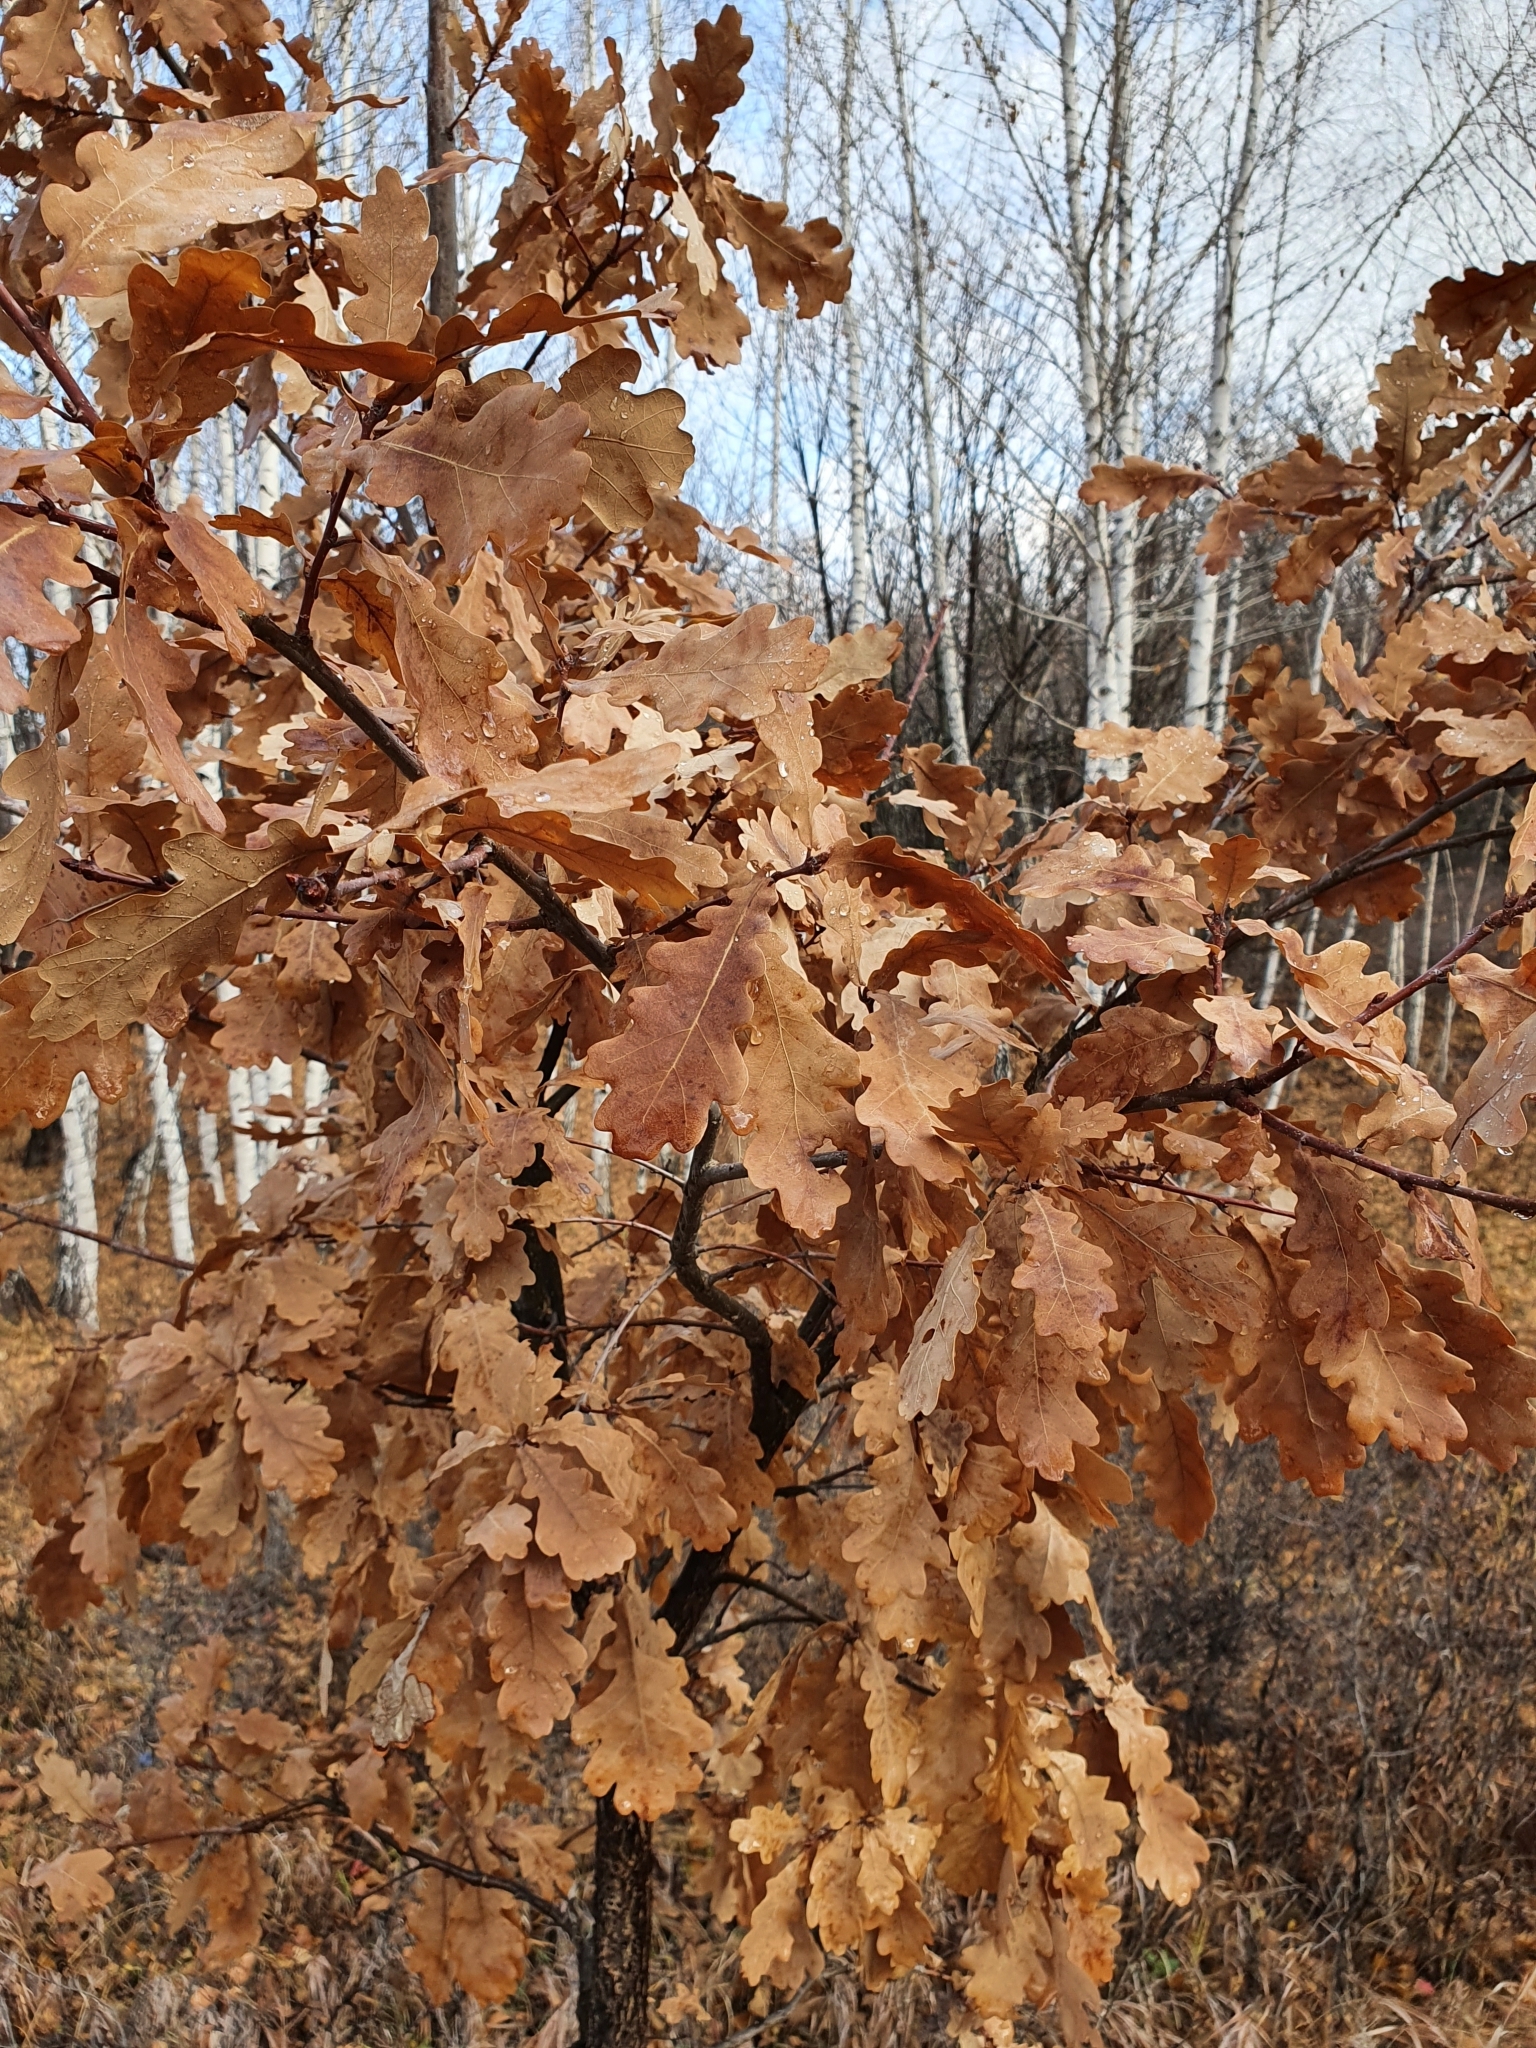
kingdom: Plantae
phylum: Tracheophyta
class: Magnoliopsida
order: Fagales
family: Fagaceae
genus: Quercus
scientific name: Quercus robur
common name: Pedunculate oak
